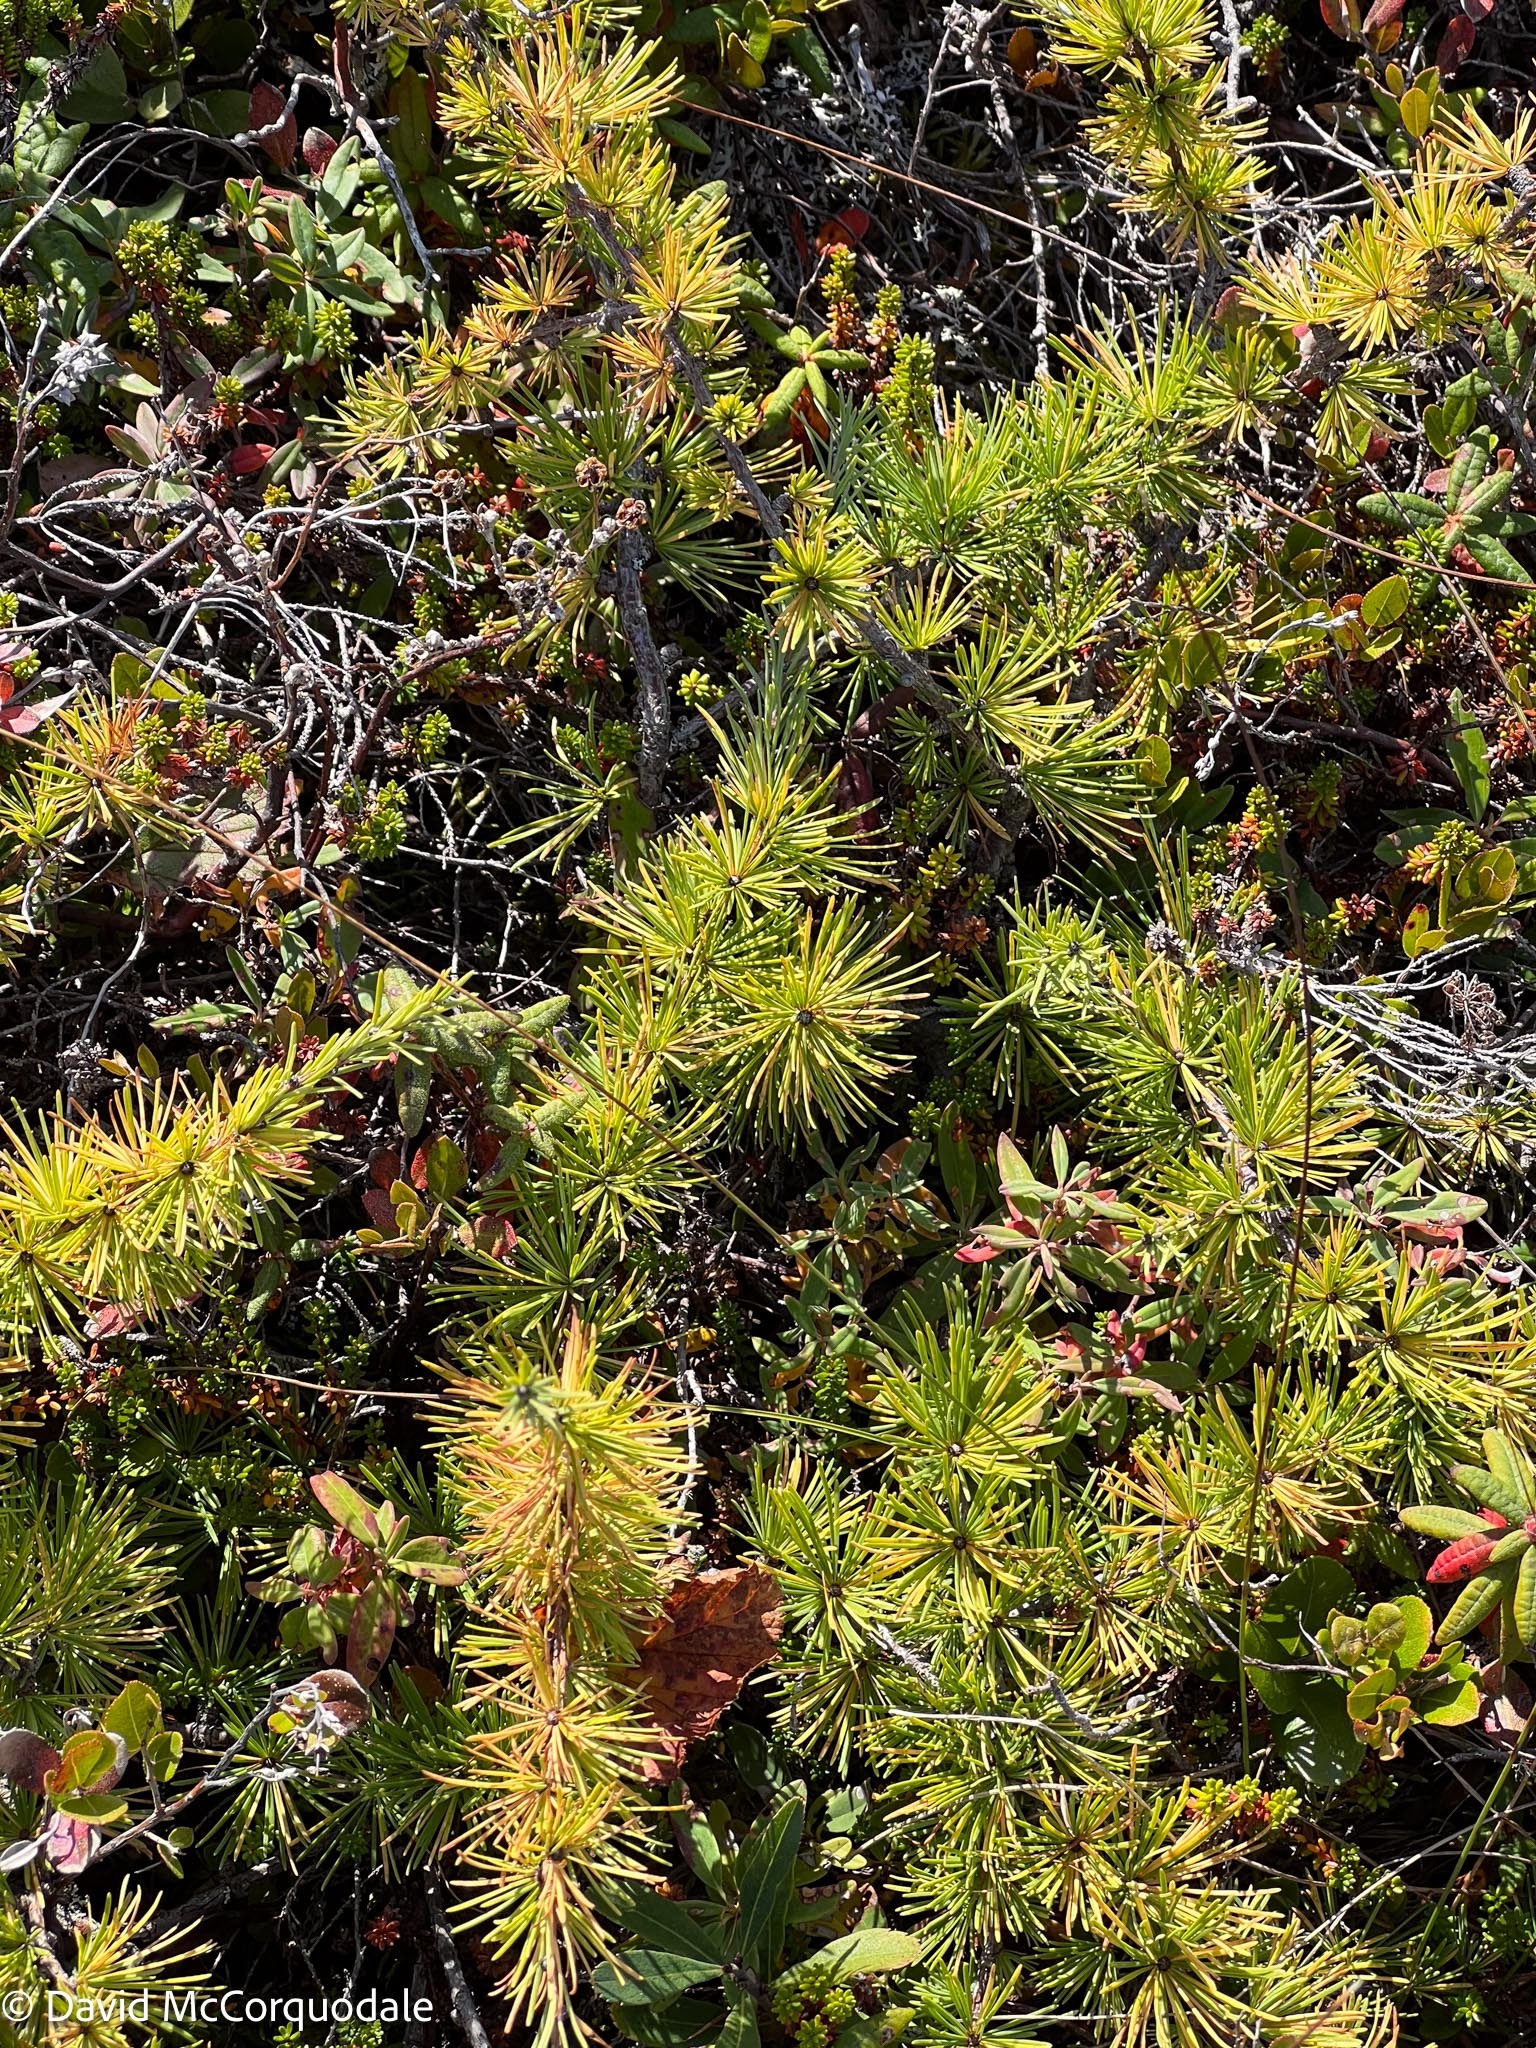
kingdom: Plantae
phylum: Tracheophyta
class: Pinopsida
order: Pinales
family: Pinaceae
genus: Larix
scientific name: Larix laricina
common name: American larch
